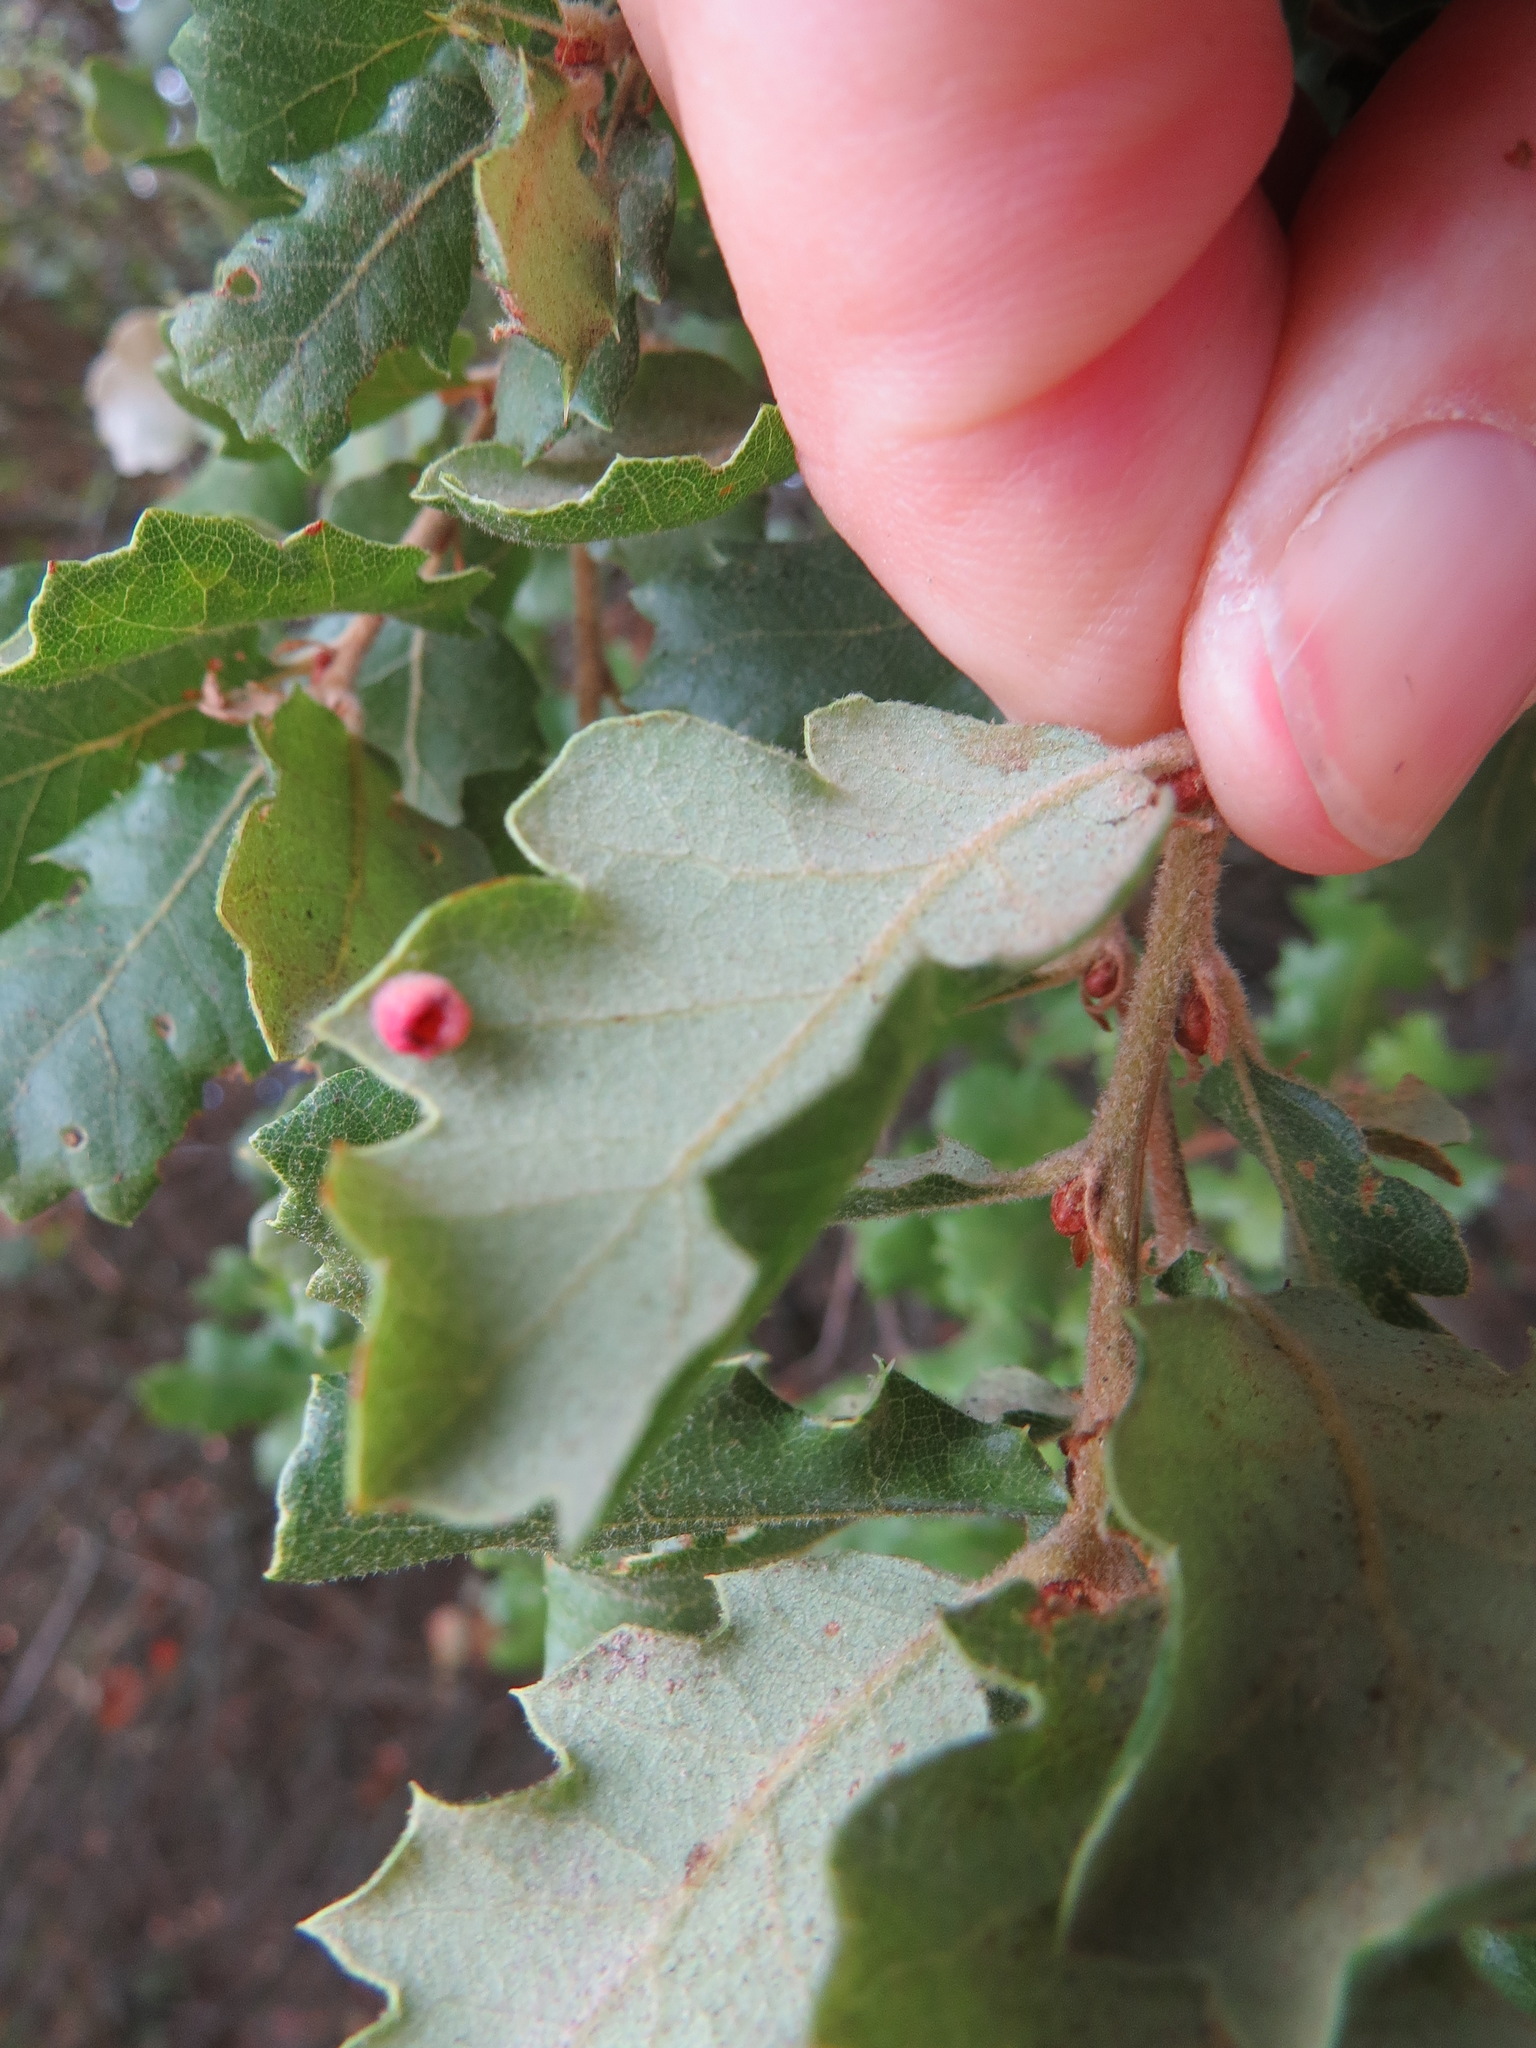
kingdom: Animalia
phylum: Arthropoda
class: Insecta
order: Hymenoptera
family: Cynipidae
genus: Phylloteras
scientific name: Phylloteras
